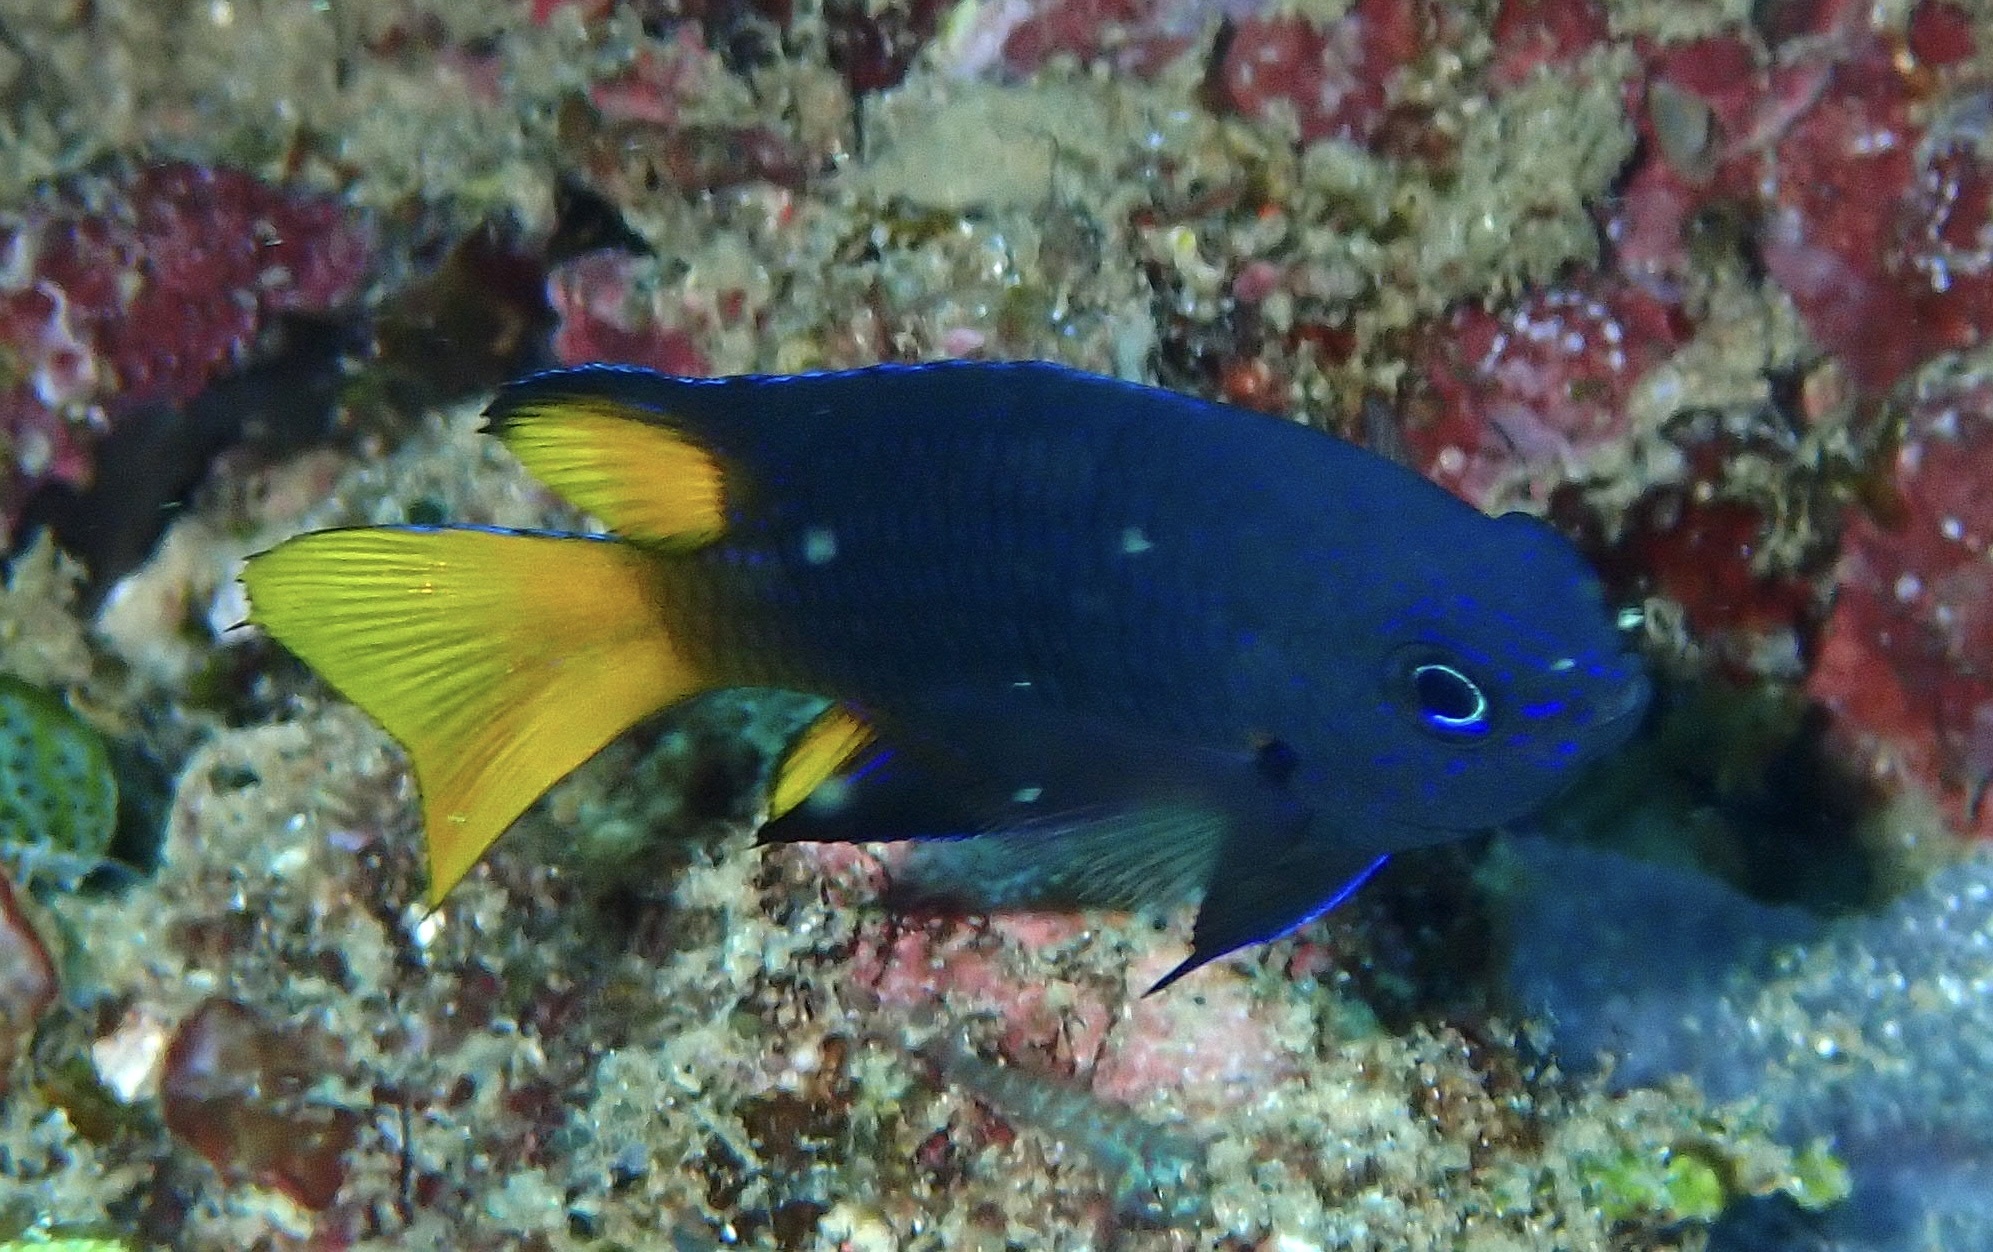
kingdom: Animalia
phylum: Chordata
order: Perciformes
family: Pomacentridae
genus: Pomacentrus
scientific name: Pomacentrus philippinus
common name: Philippine damsel
